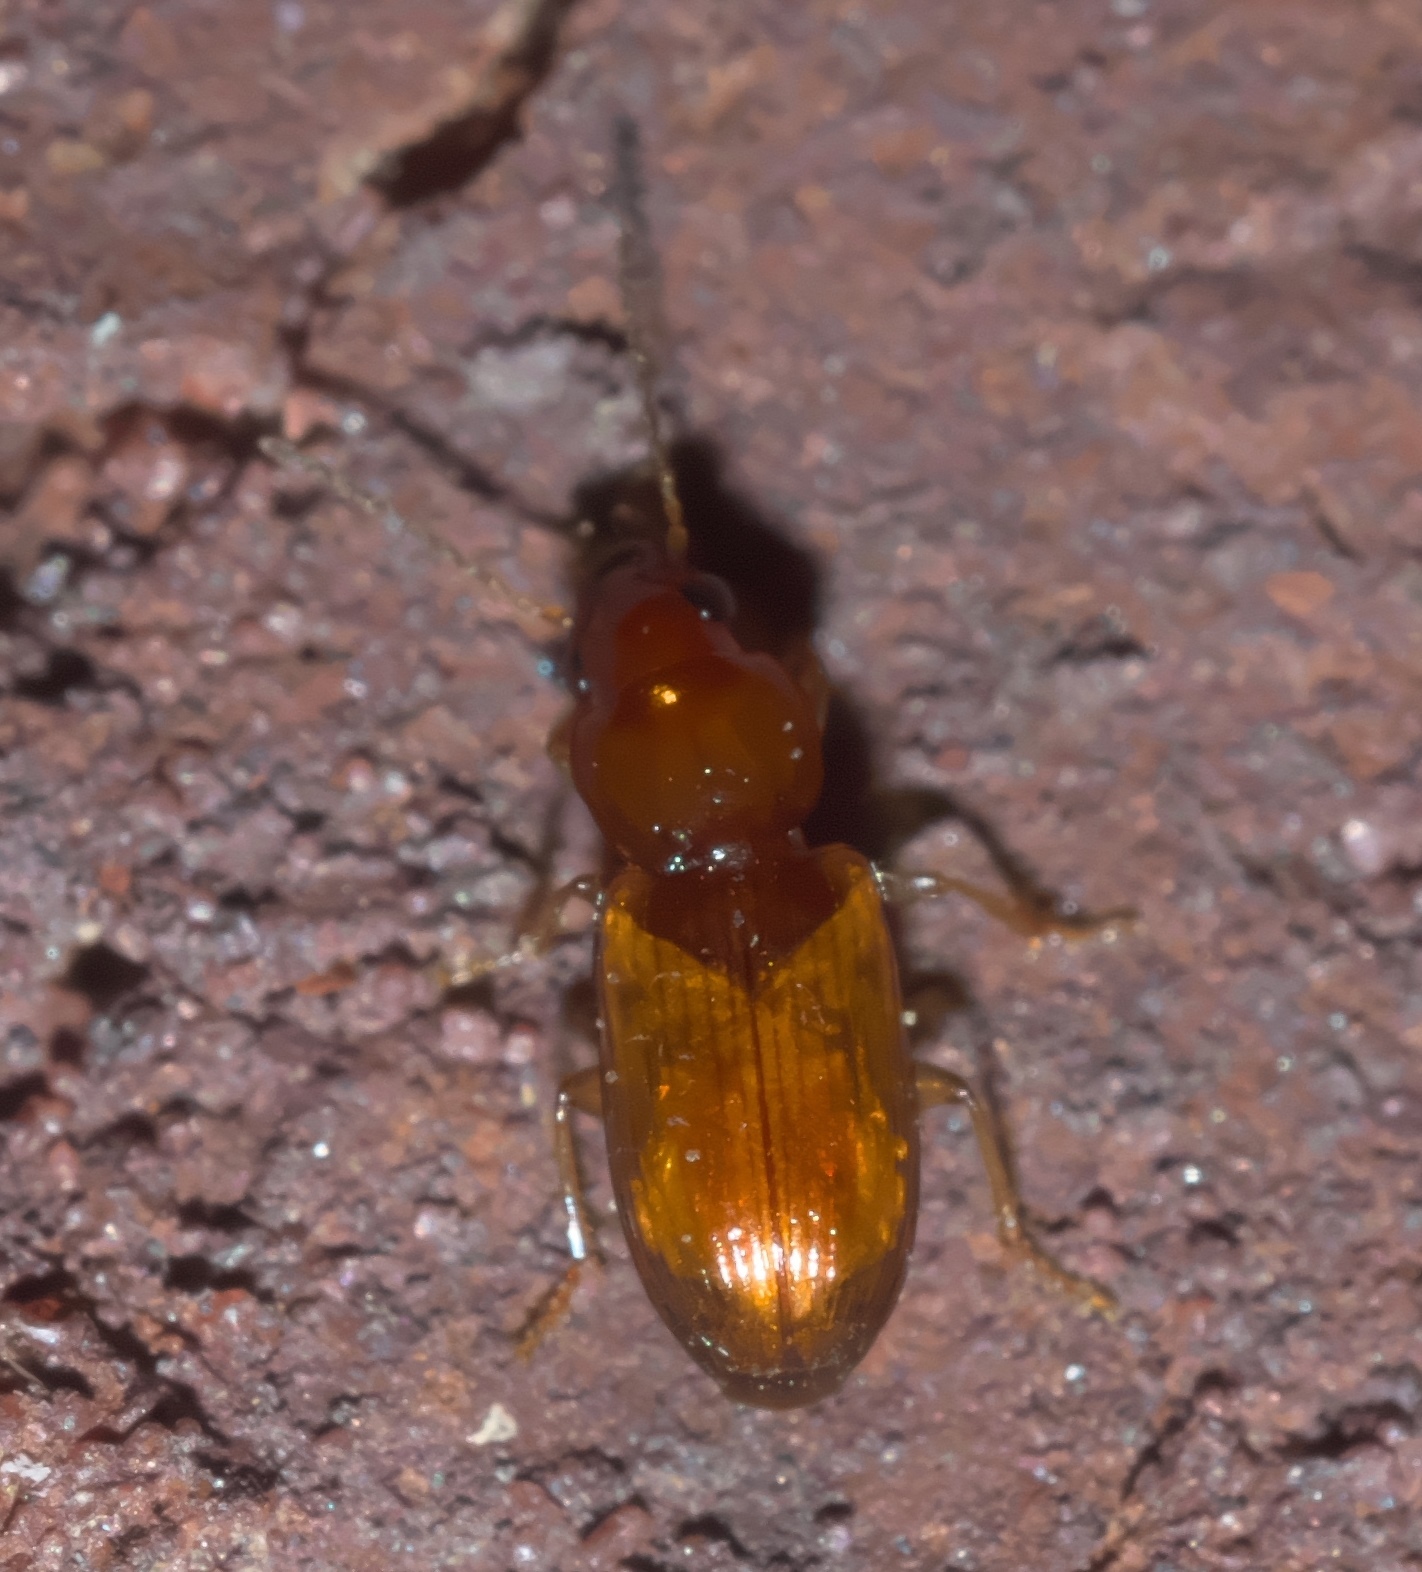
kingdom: Animalia
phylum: Arthropoda
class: Insecta
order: Coleoptera
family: Carabidae
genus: Acupalpus
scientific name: Acupalpus testaceus
